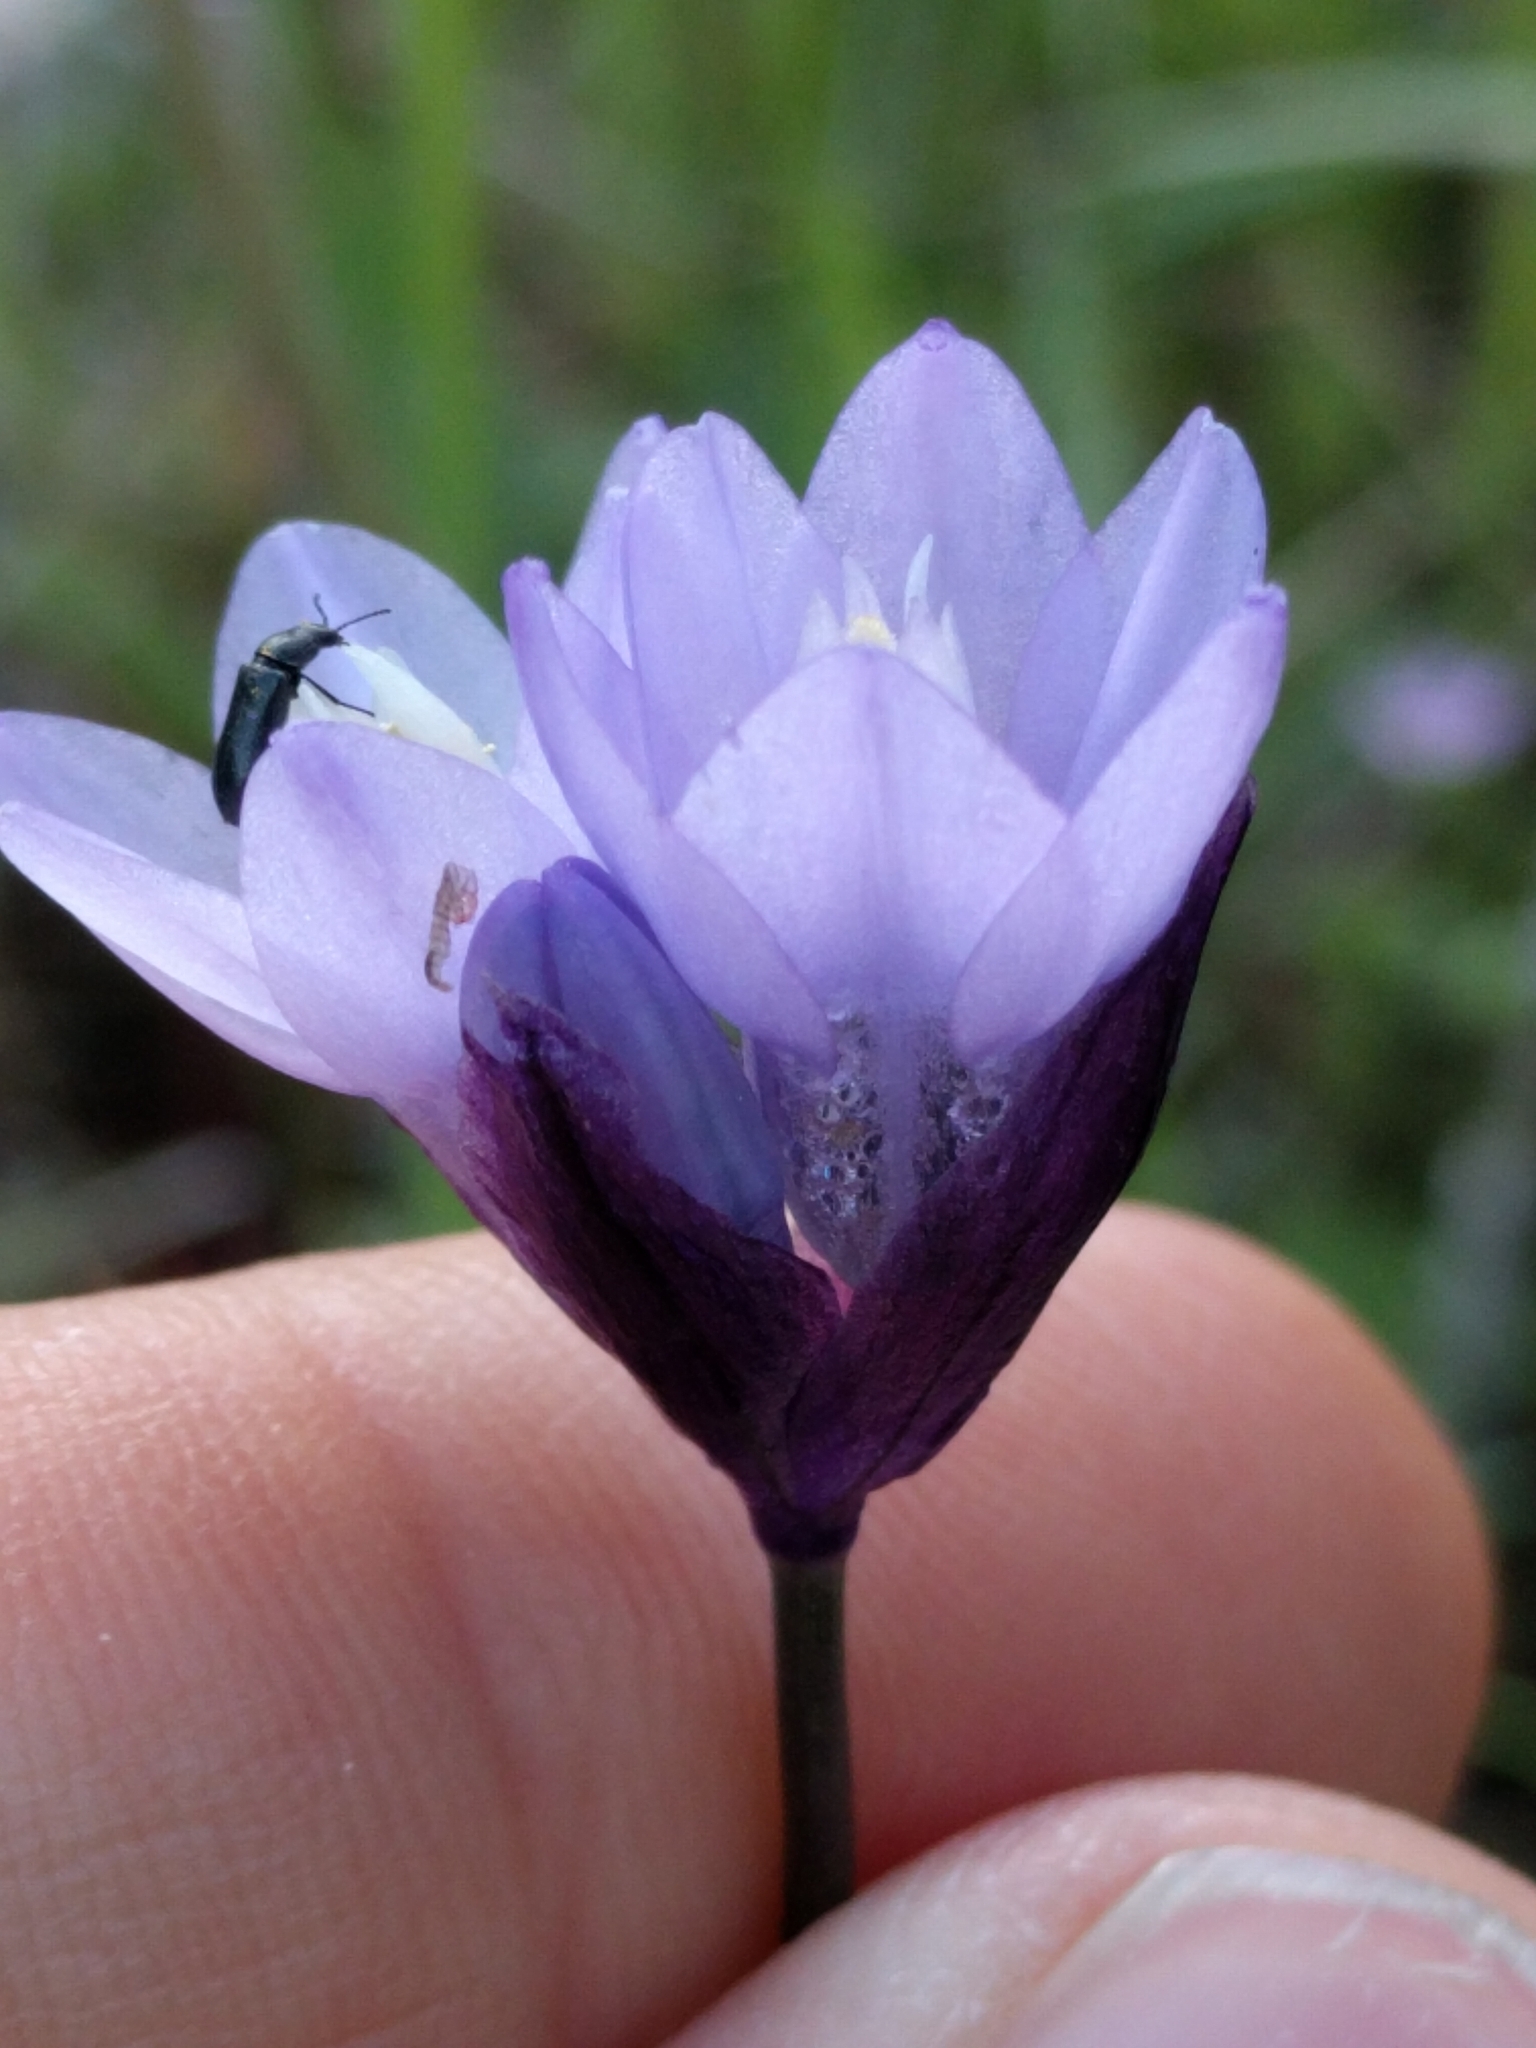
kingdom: Plantae
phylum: Tracheophyta
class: Liliopsida
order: Asparagales
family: Asparagaceae
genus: Dipterostemon
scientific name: Dipterostemon capitatus
